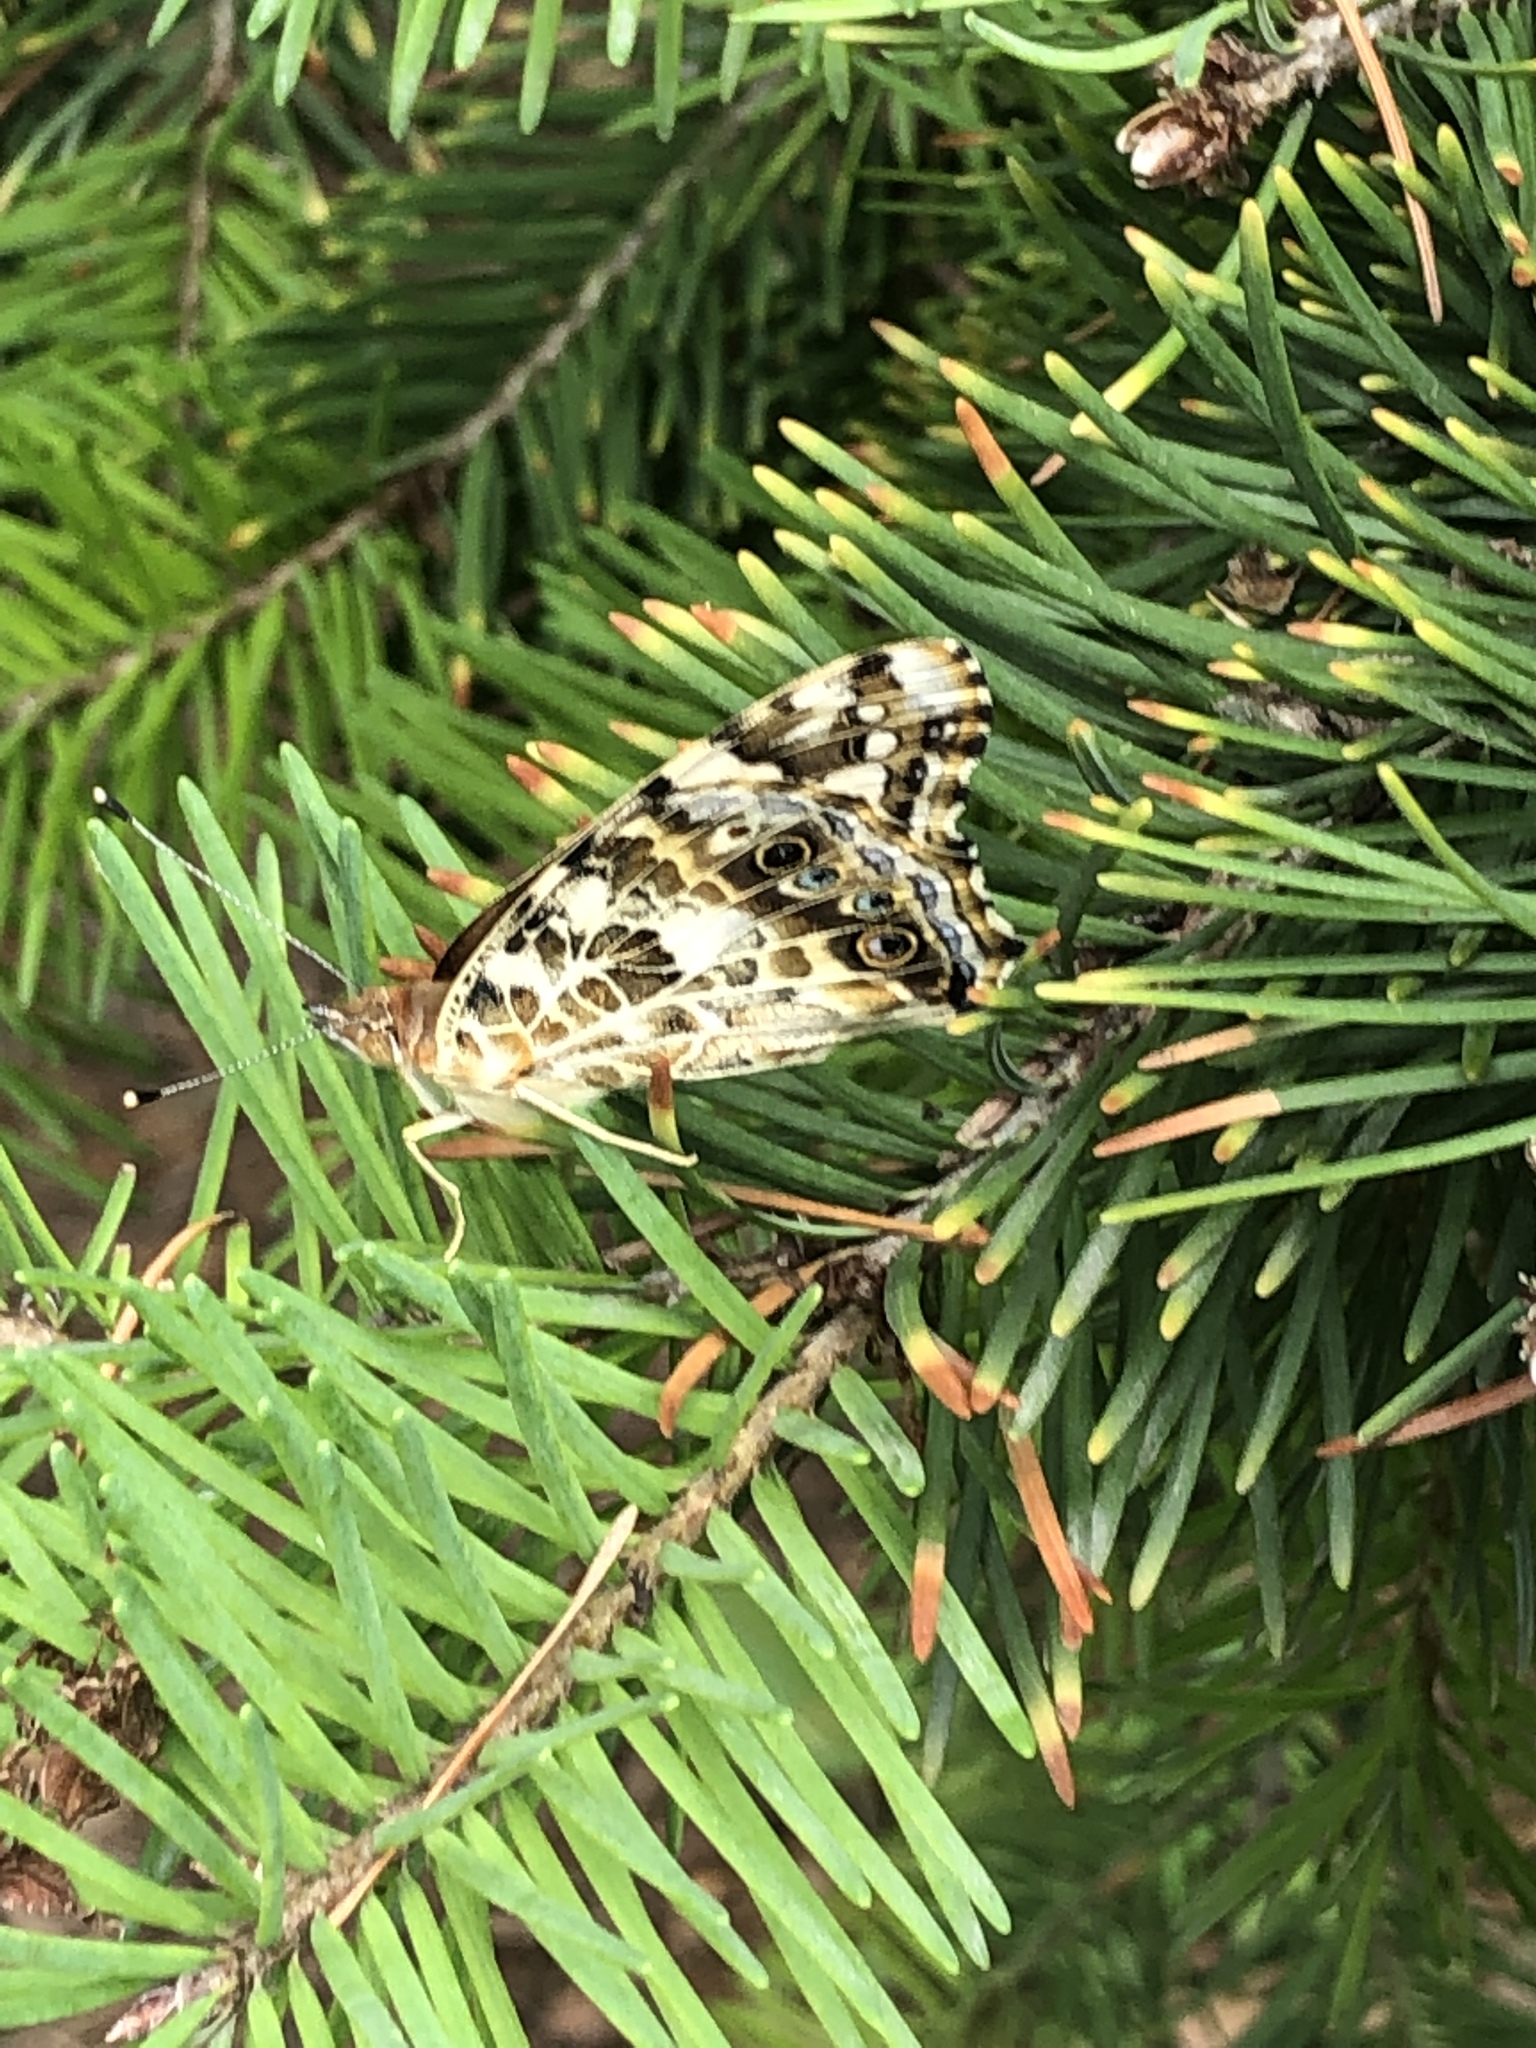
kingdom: Animalia
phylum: Arthropoda
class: Insecta
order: Lepidoptera
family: Nymphalidae
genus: Vanessa
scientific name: Vanessa cardui
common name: Painted lady
